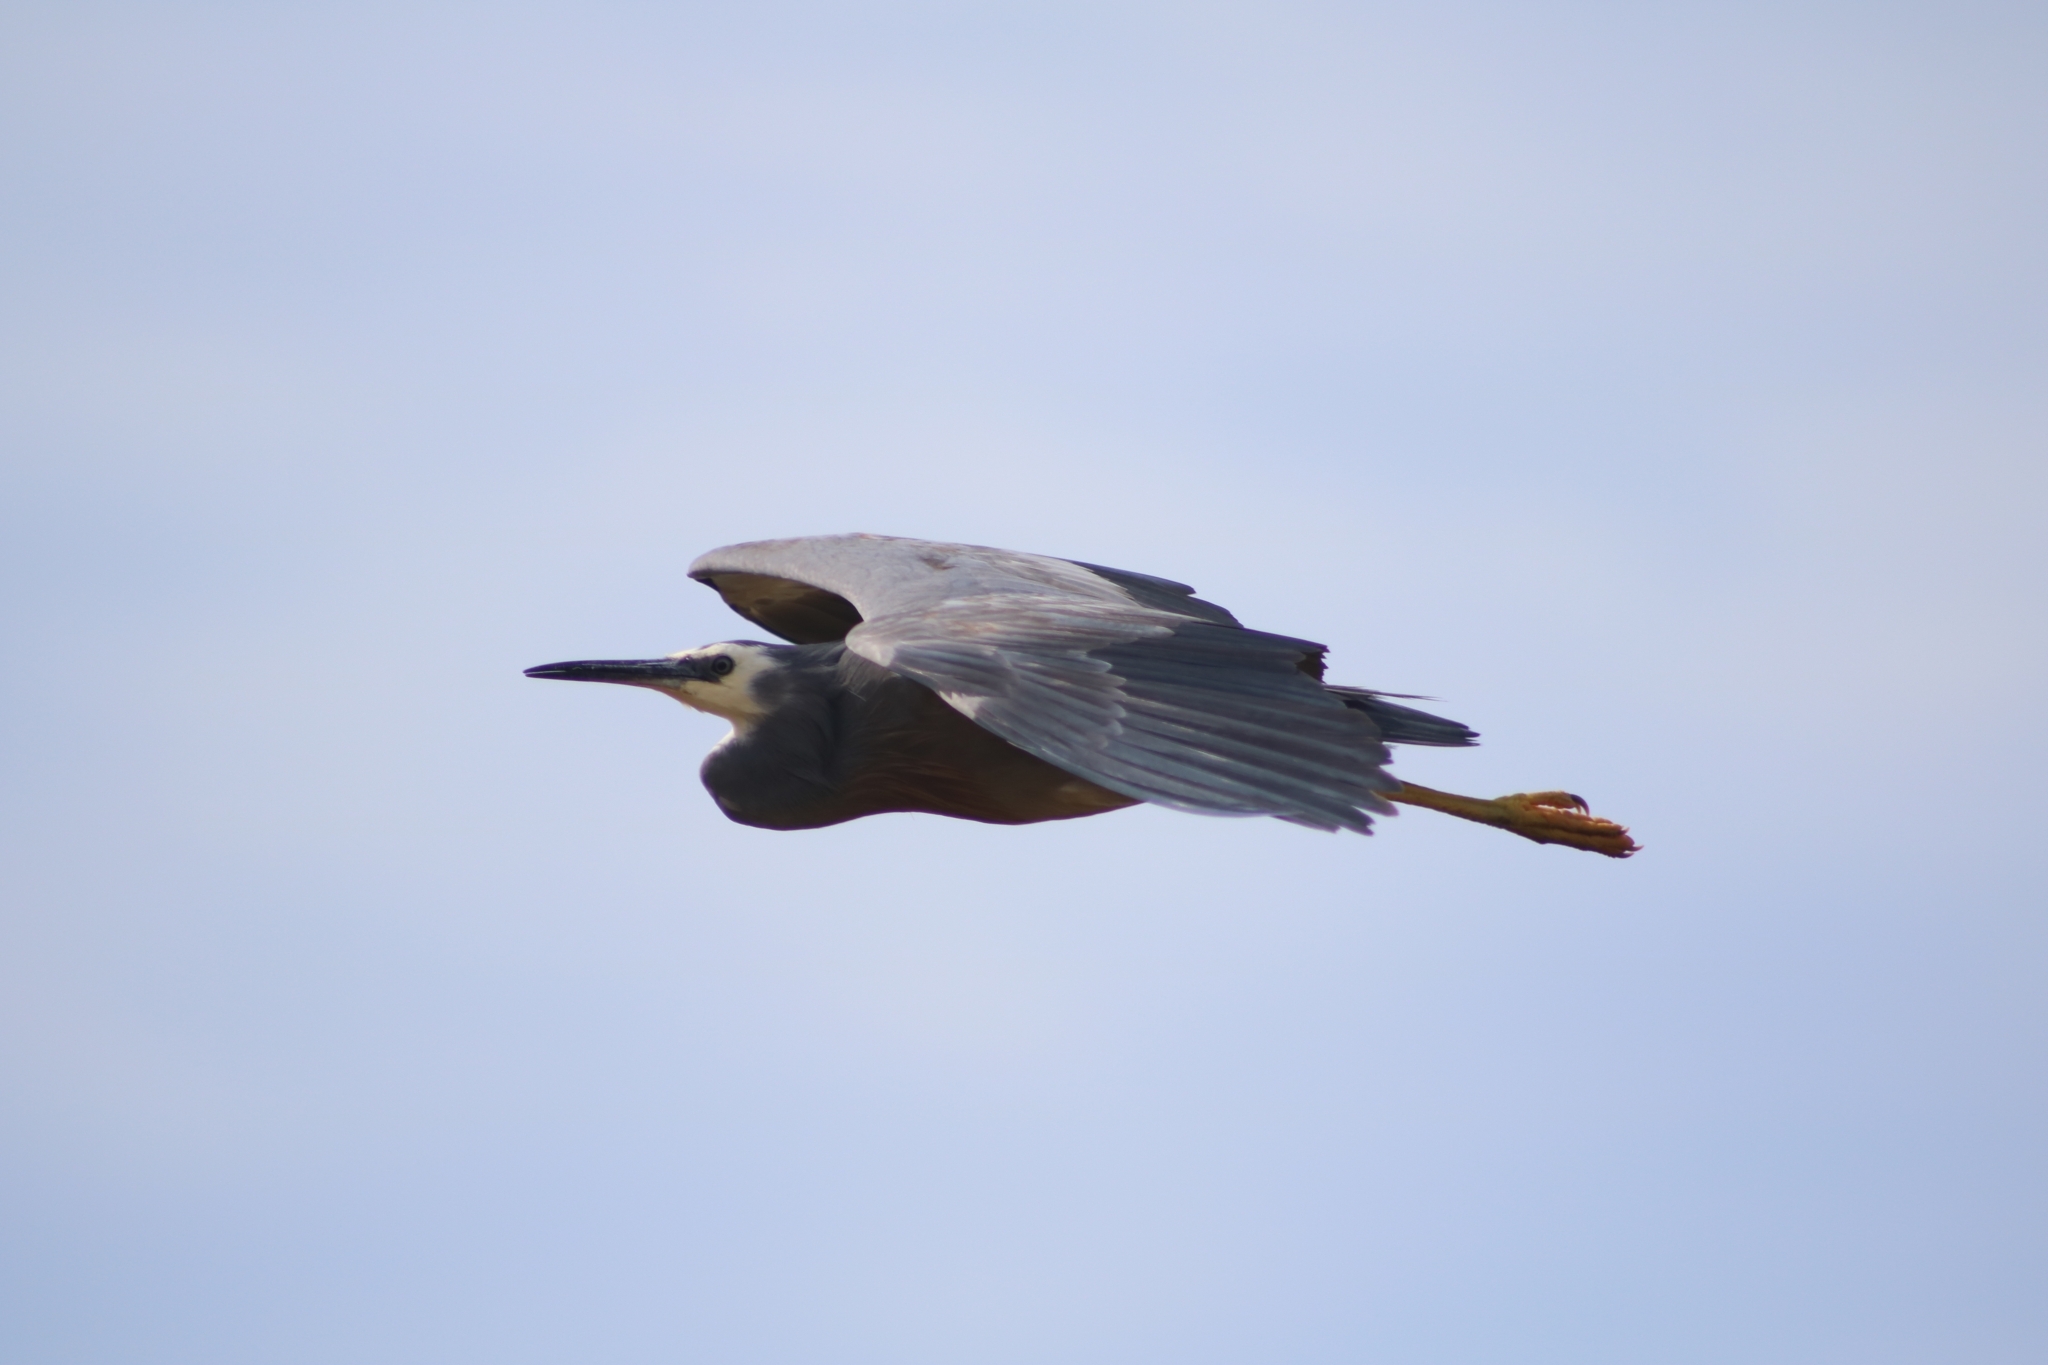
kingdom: Animalia
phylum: Chordata
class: Aves
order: Pelecaniformes
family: Ardeidae
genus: Egretta
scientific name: Egretta novaehollandiae
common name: White-faced heron
